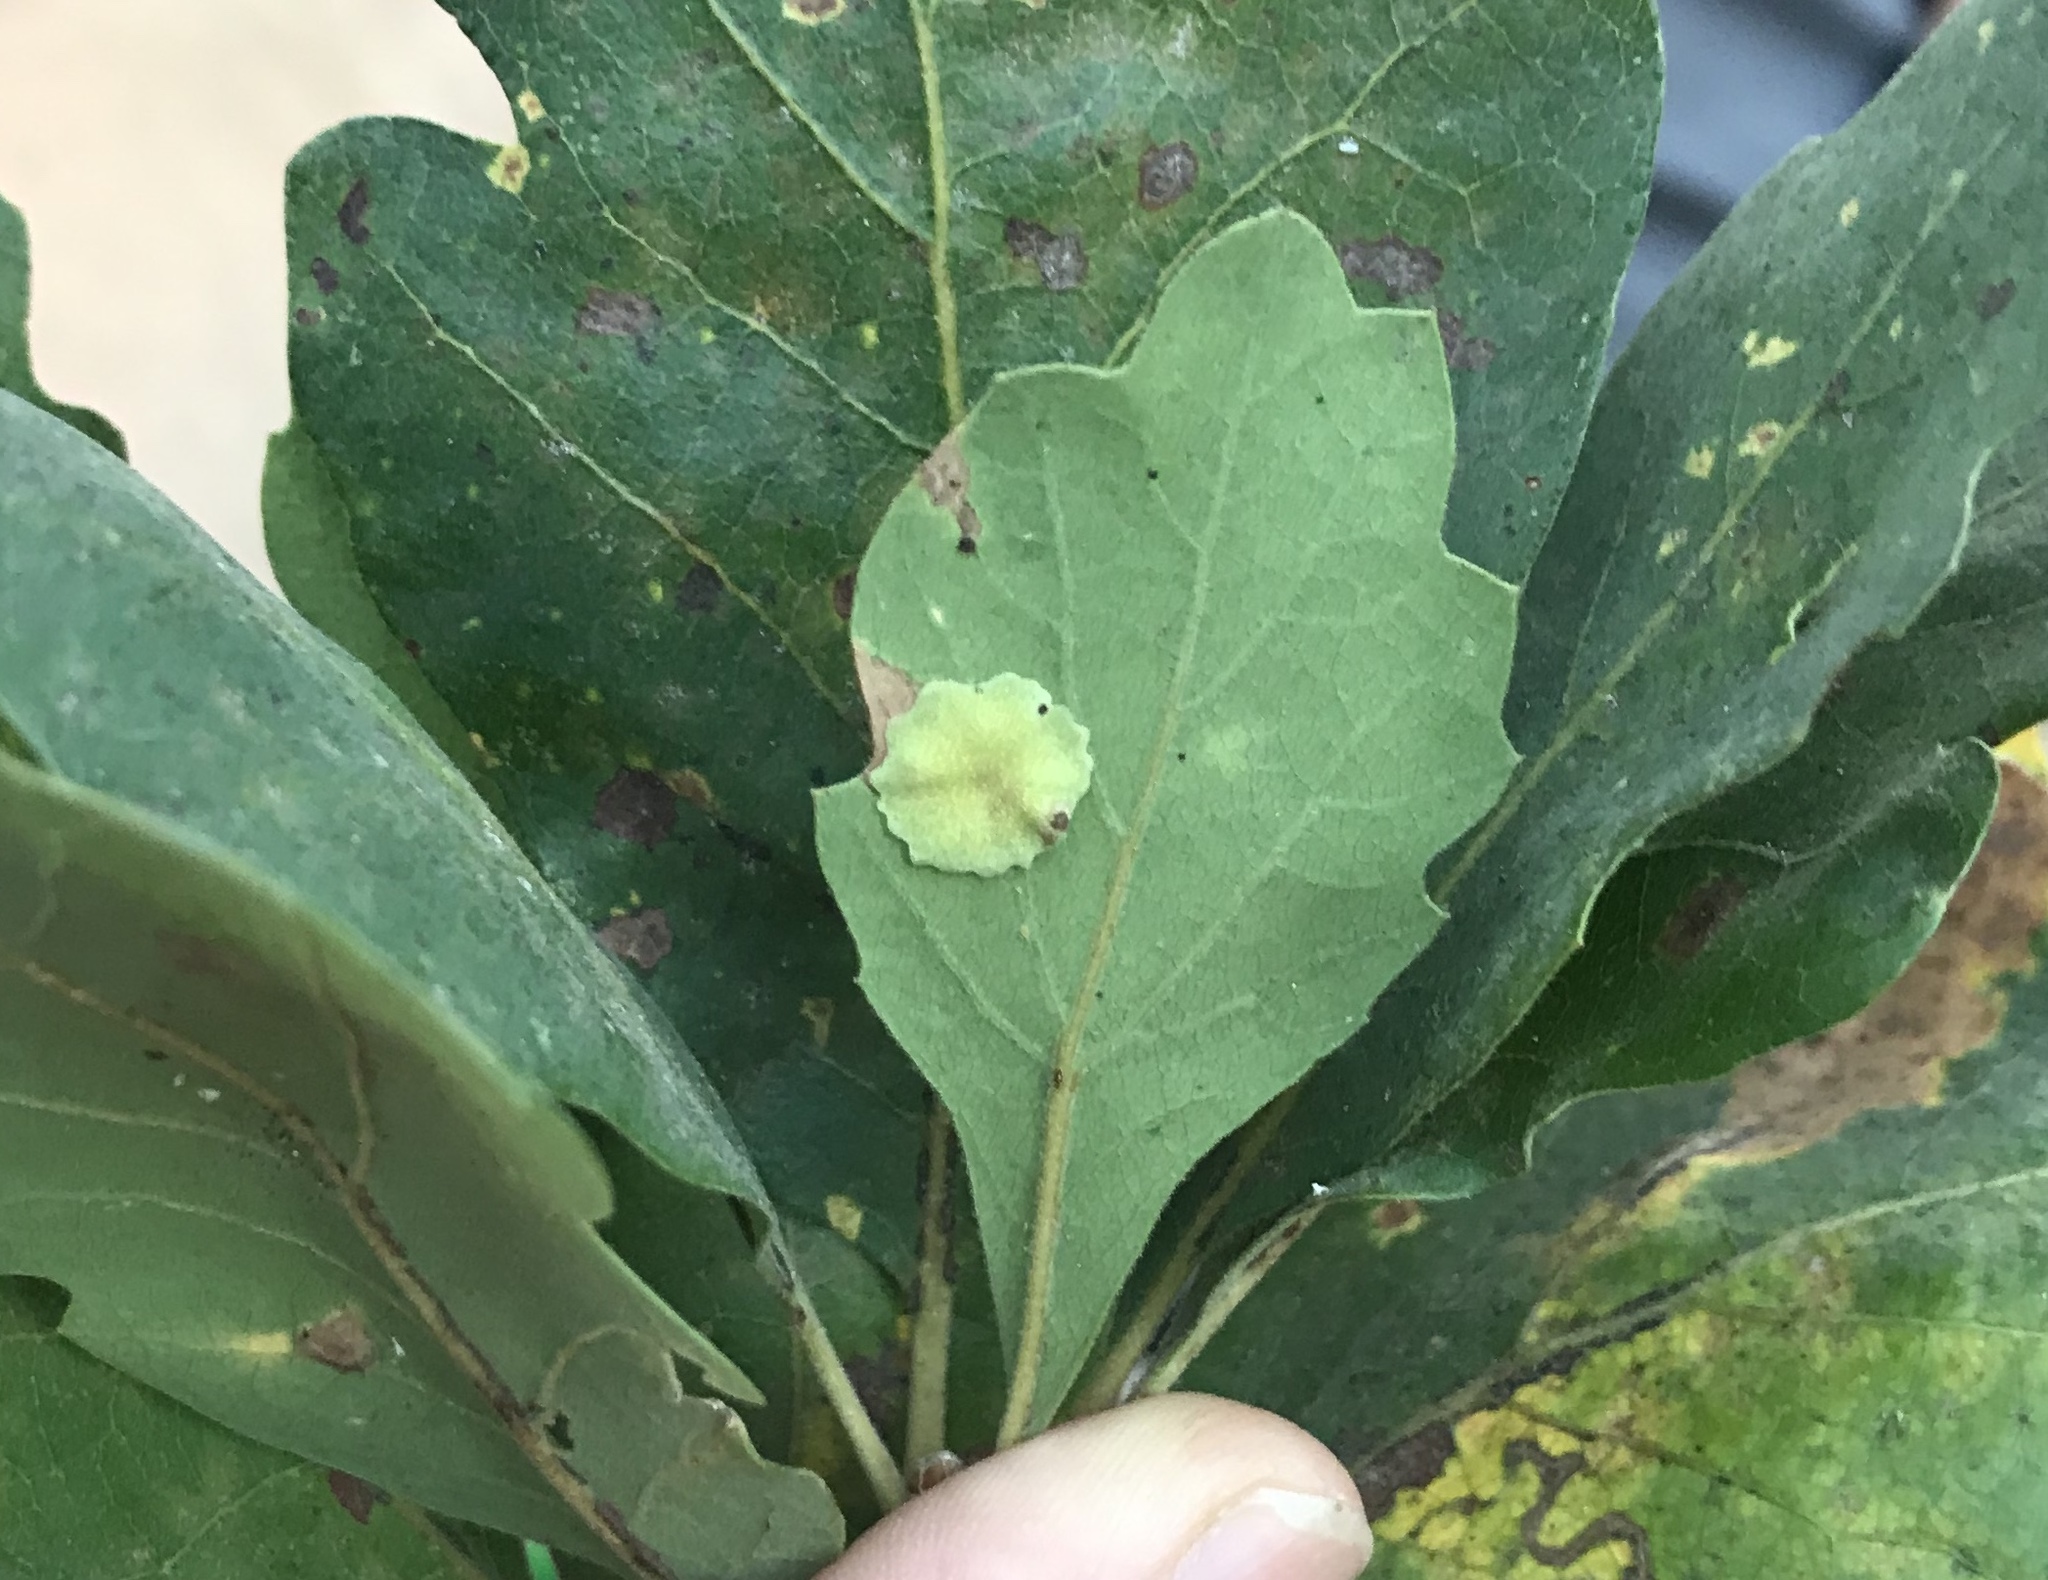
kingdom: Animalia
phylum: Arthropoda
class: Insecta
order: Hymenoptera
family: Cynipidae
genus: Andricus
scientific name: Andricus
